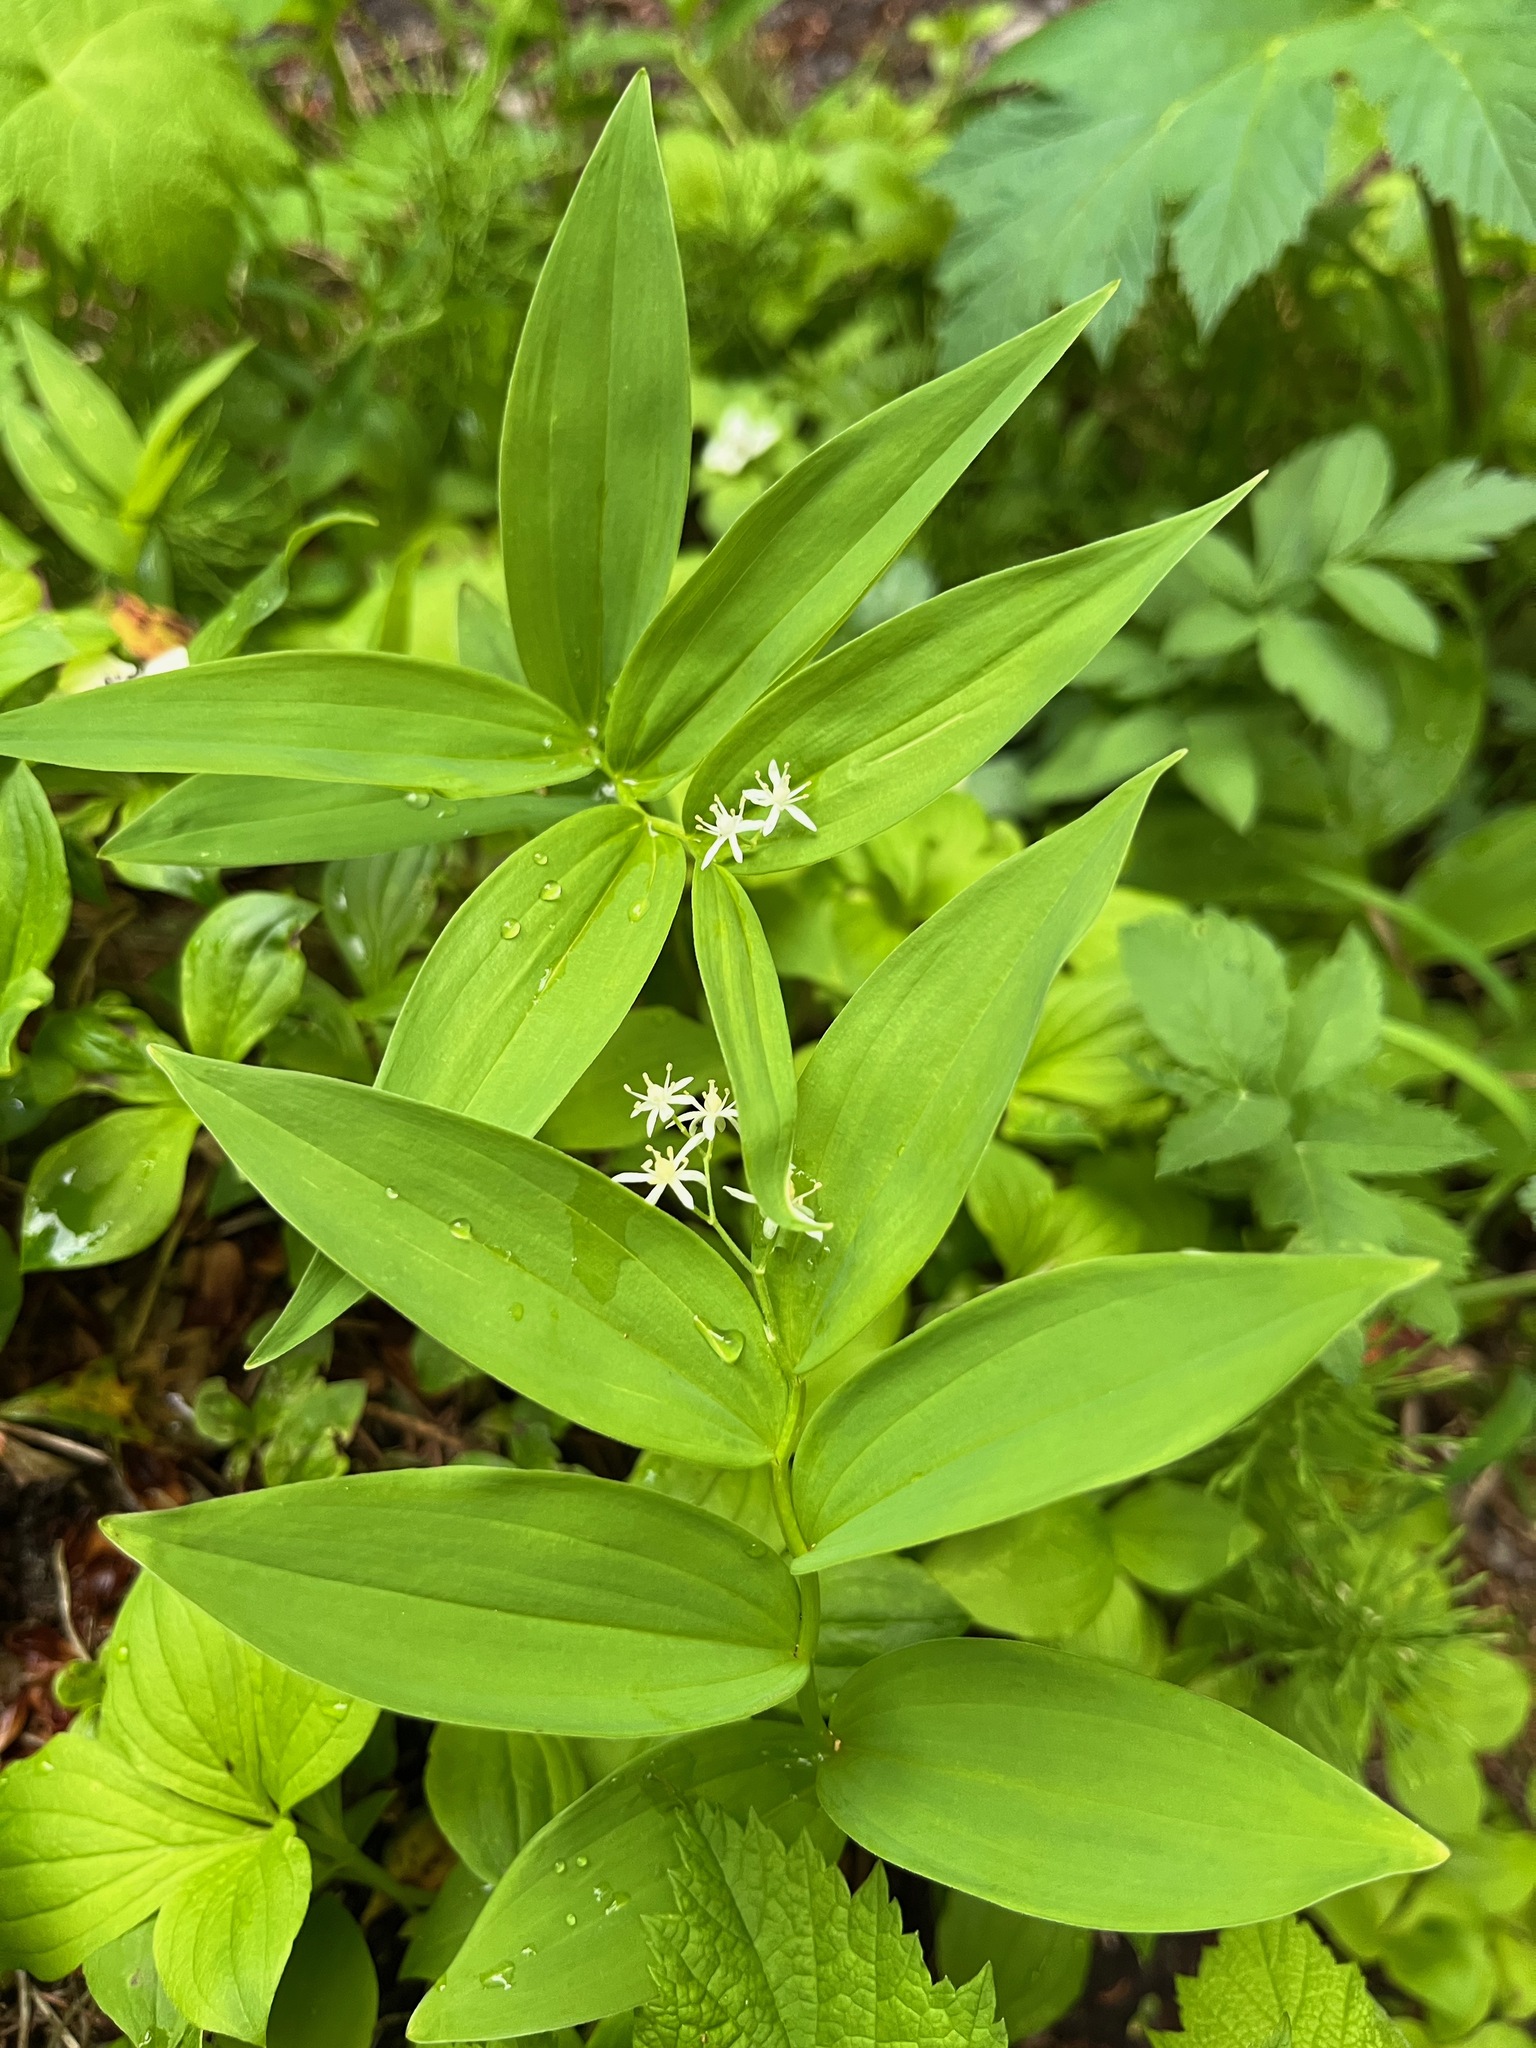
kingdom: Plantae
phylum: Tracheophyta
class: Liliopsida
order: Asparagales
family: Asparagaceae
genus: Maianthemum
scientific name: Maianthemum stellatum
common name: Little false solomon's seal
